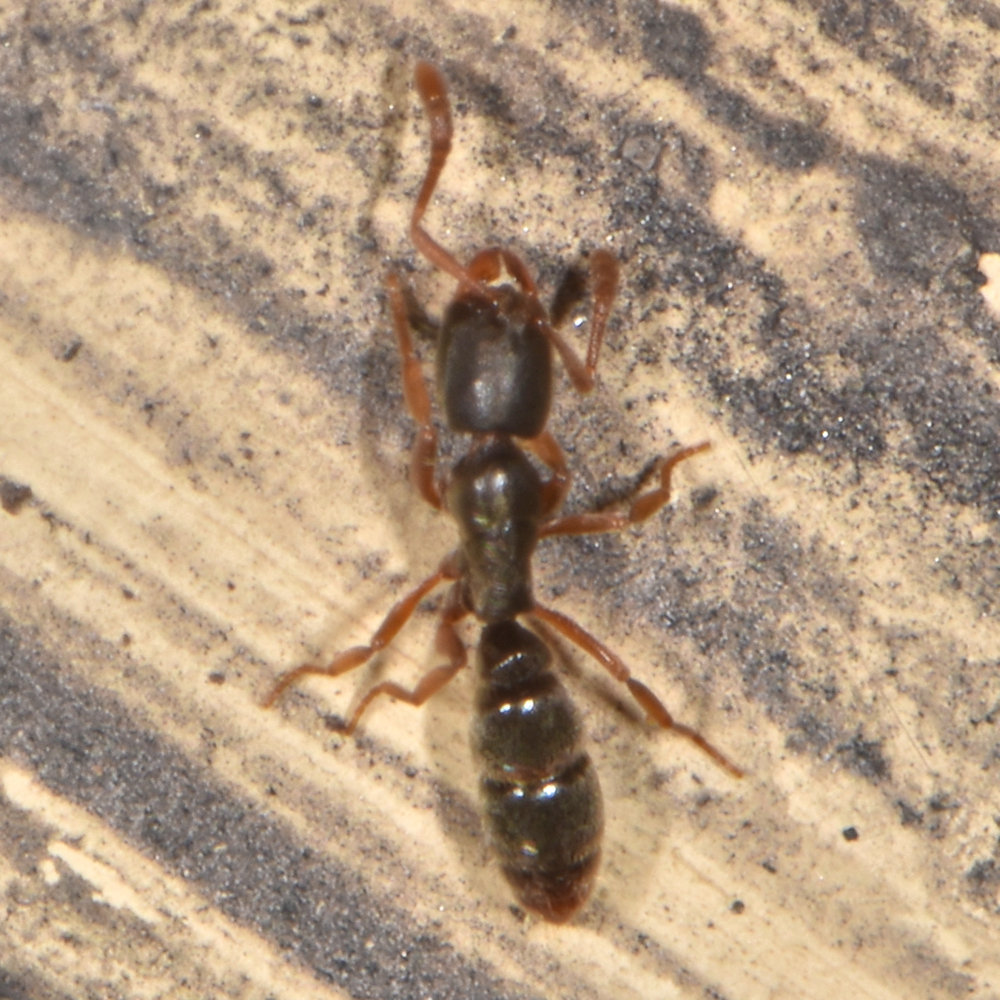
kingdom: Animalia
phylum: Arthropoda
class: Insecta
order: Hymenoptera
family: Formicidae
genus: Ponera
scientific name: Ponera pennsylvanica
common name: Pennsylvania ponera
